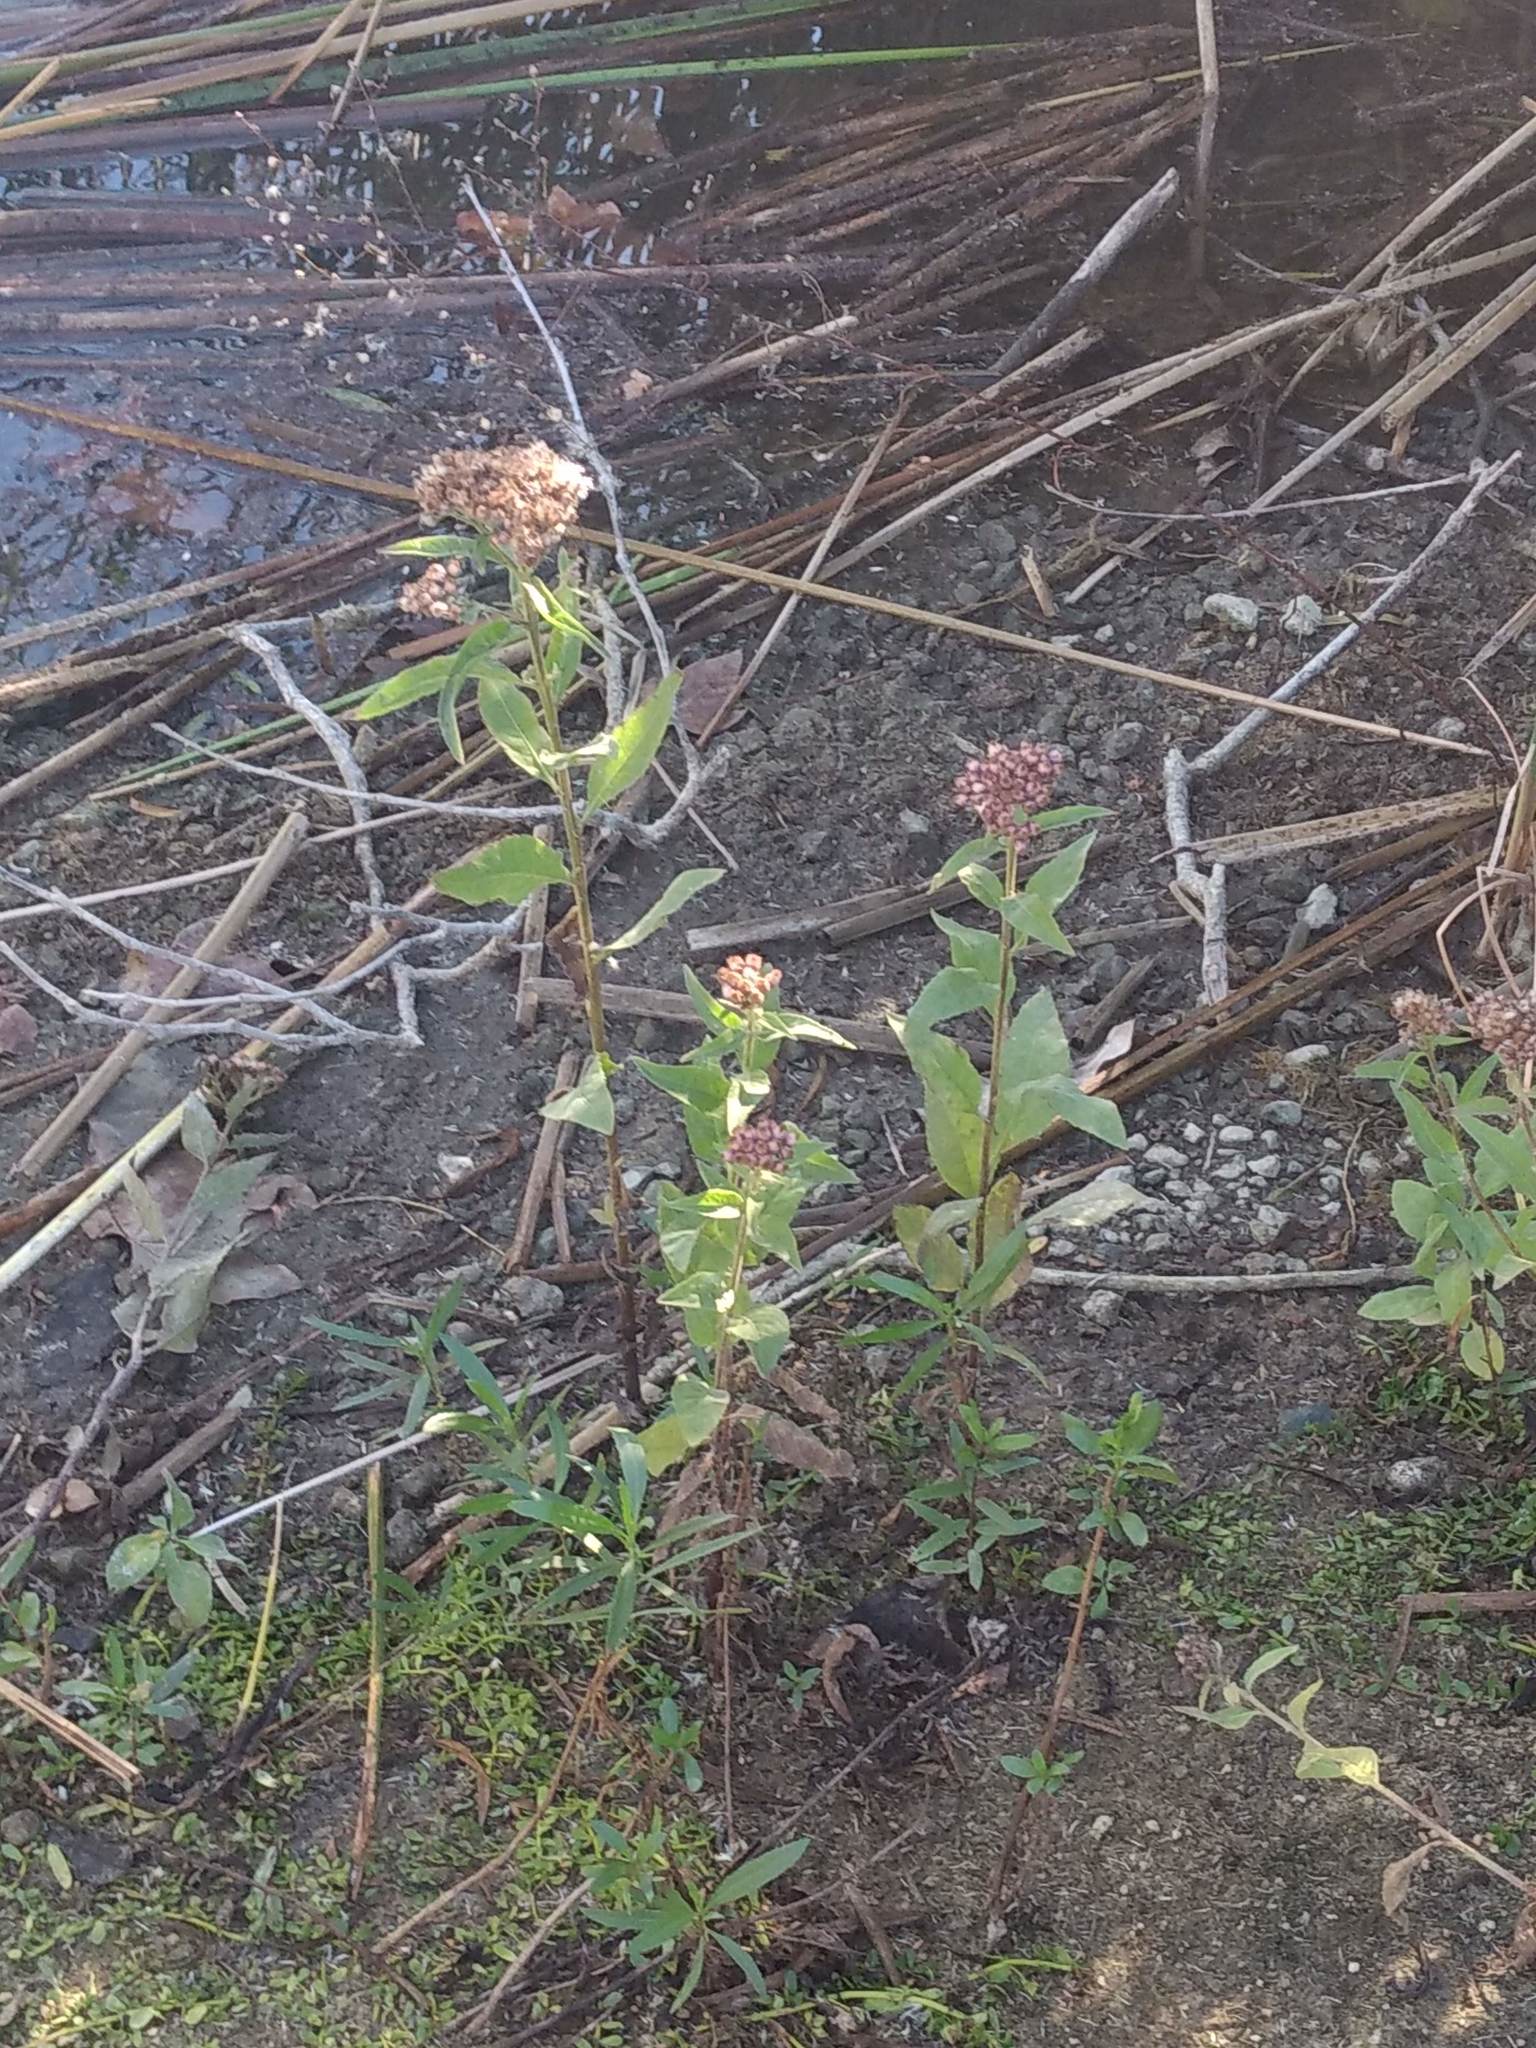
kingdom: Plantae
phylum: Tracheophyta
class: Magnoliopsida
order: Asterales
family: Asteraceae
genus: Pluchea
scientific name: Pluchea odorata
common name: Saltmarsh fleabane
